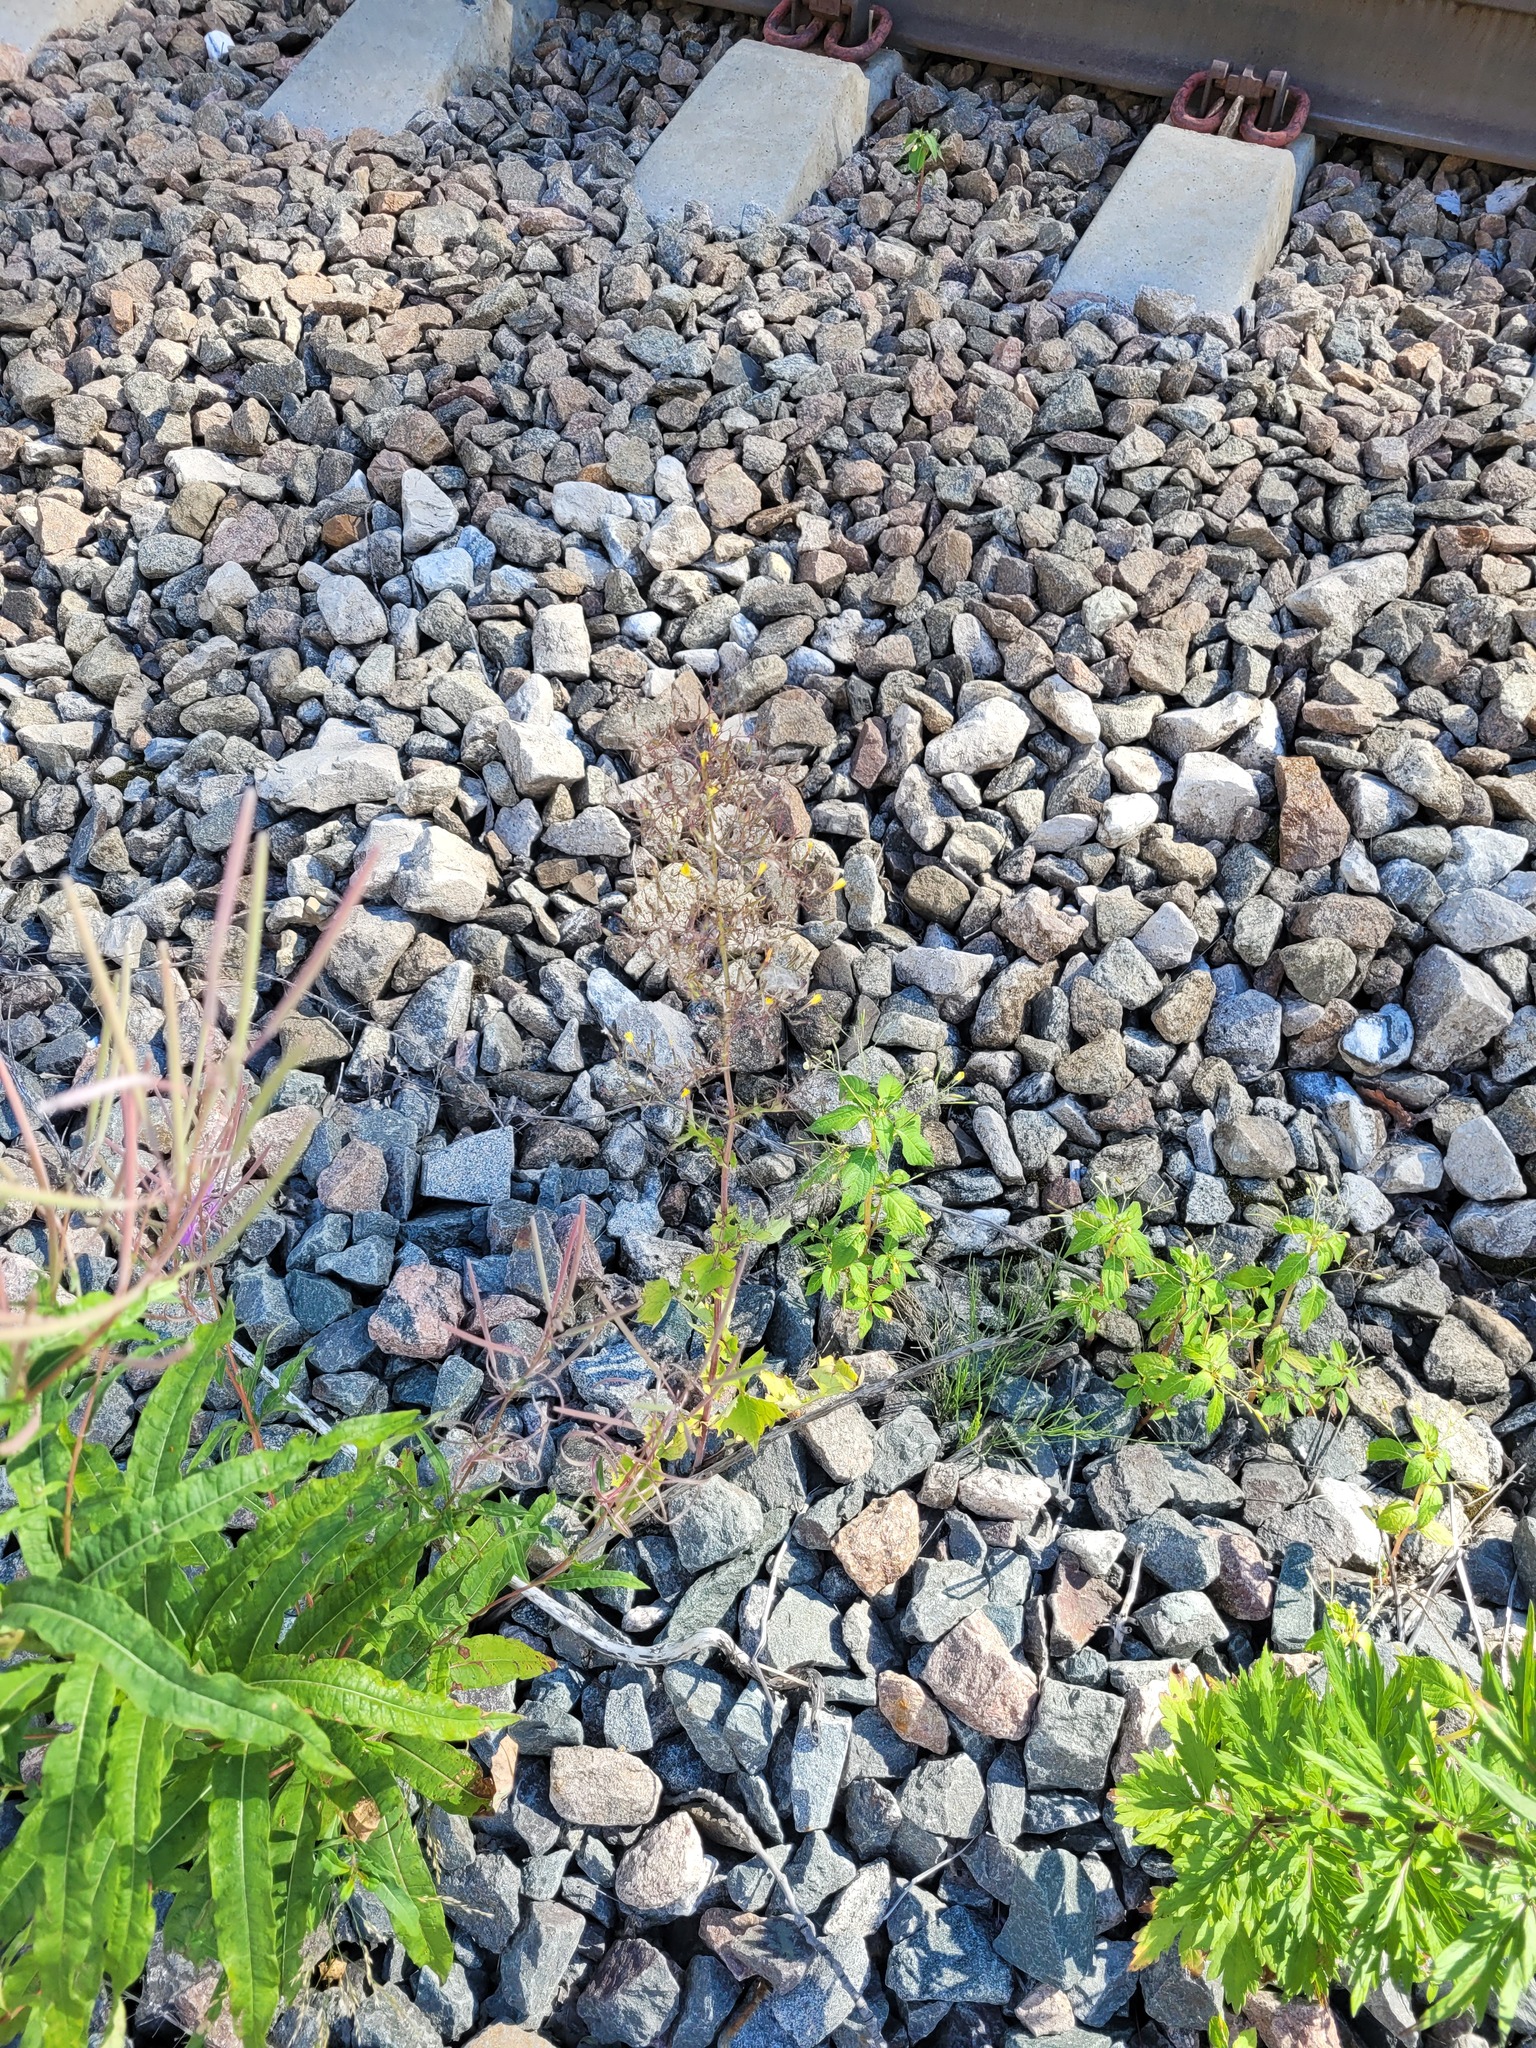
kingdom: Plantae
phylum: Tracheophyta
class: Magnoliopsida
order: Asterales
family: Asteraceae
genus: Mycelis
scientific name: Mycelis muralis
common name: Wall lettuce
